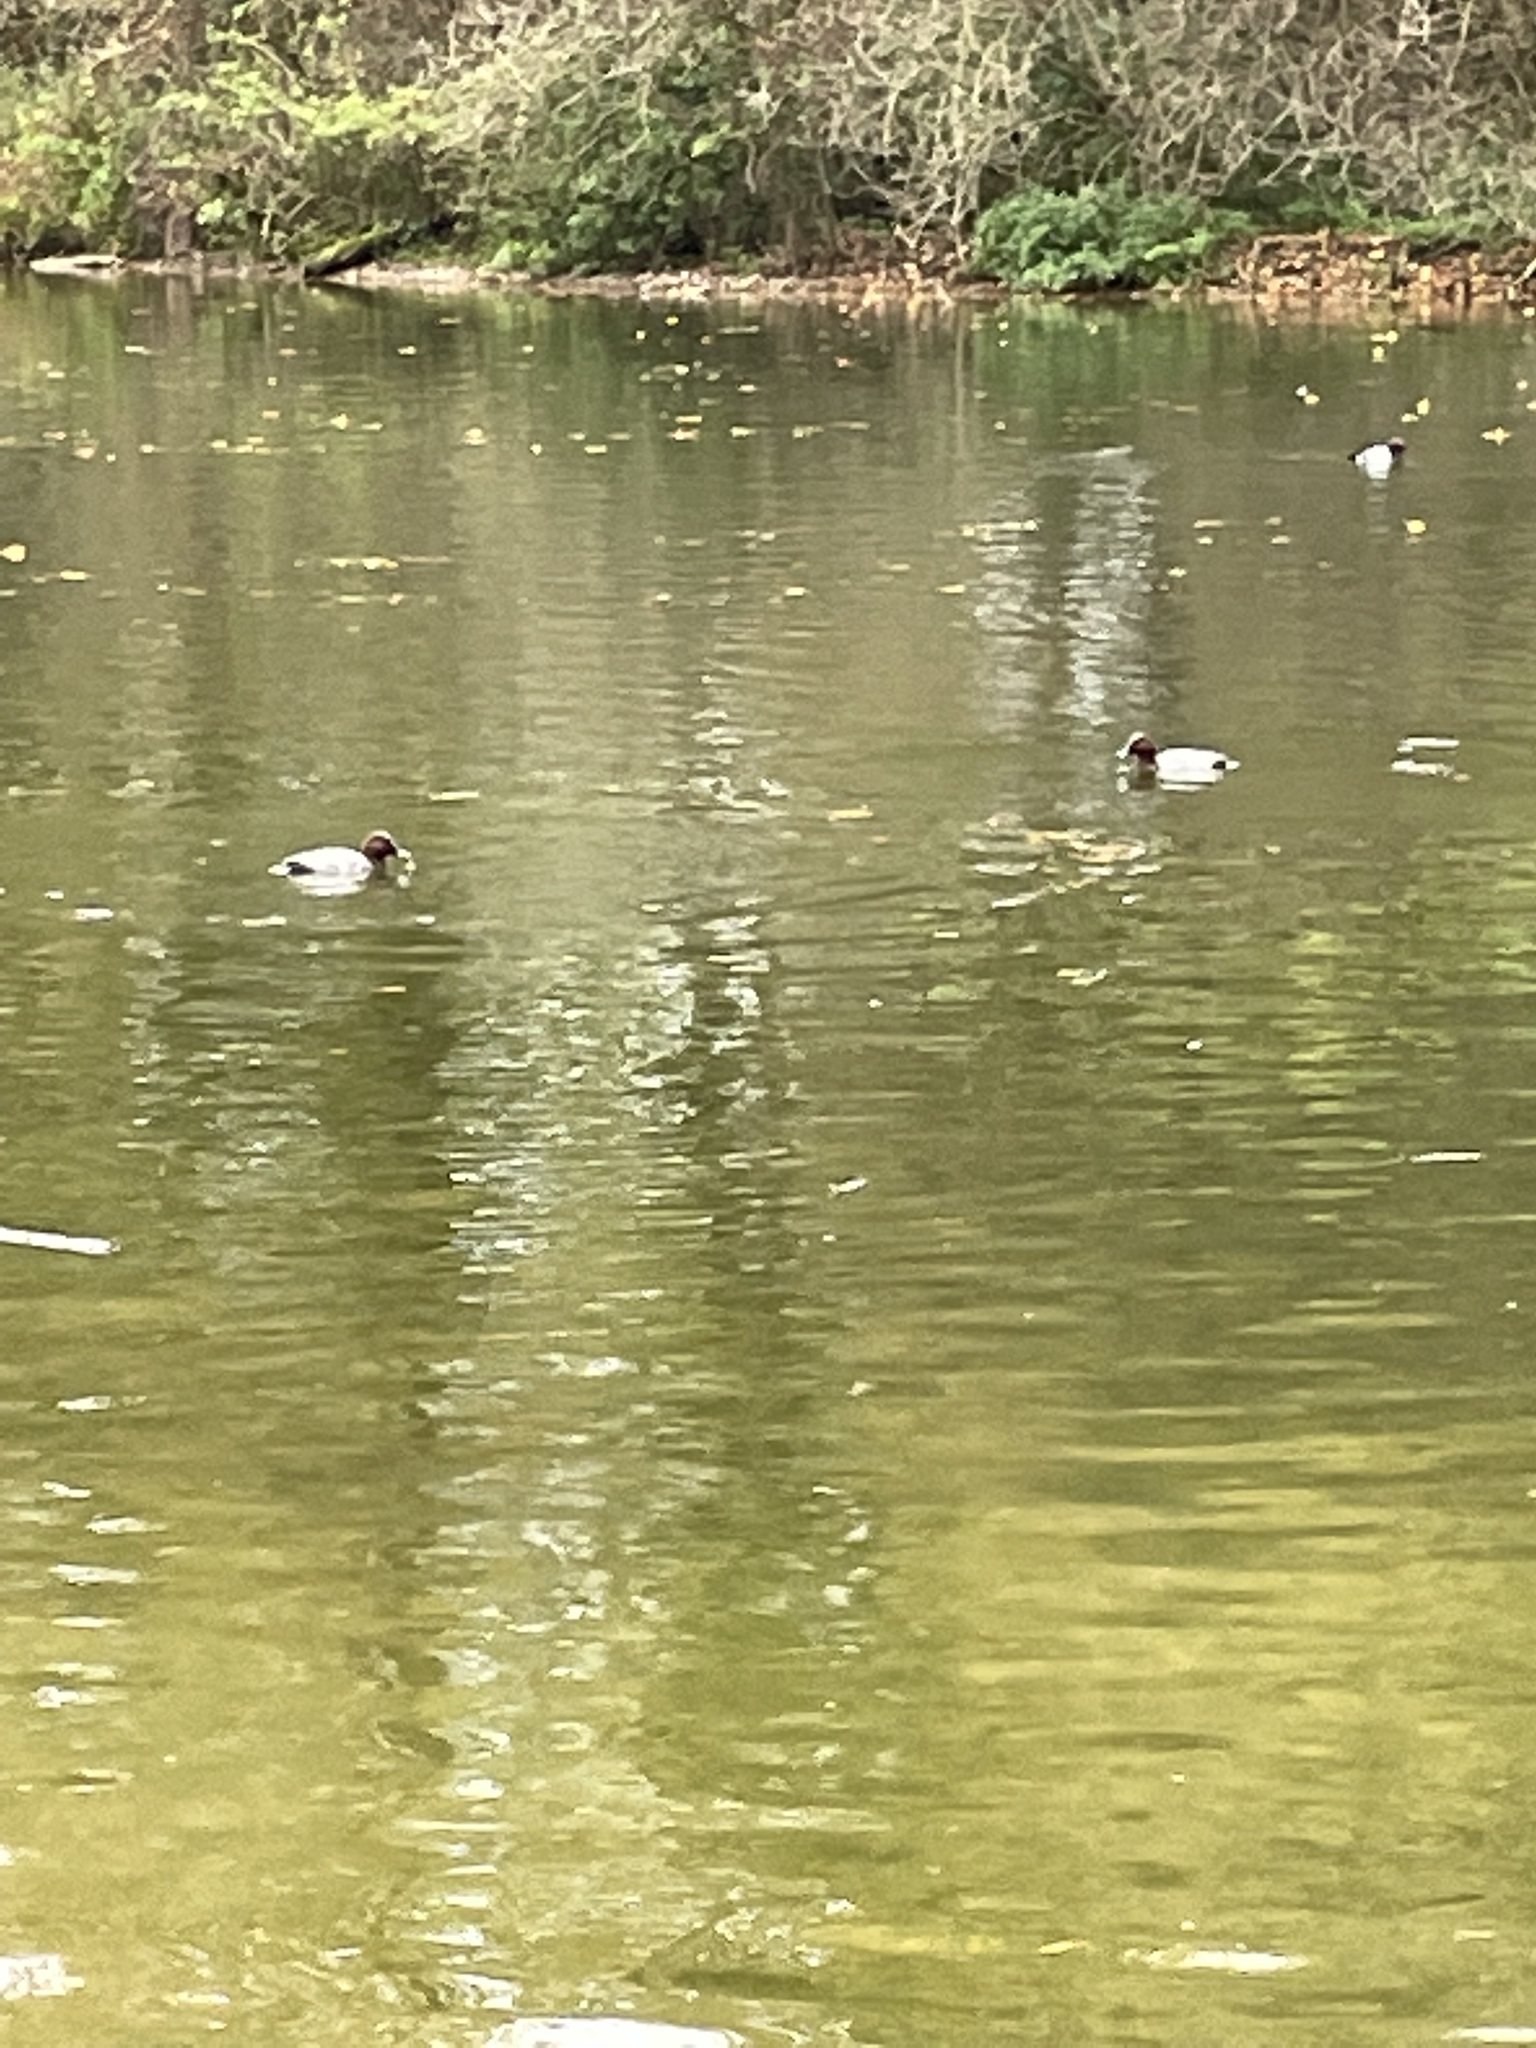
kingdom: Animalia
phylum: Chordata
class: Aves
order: Anseriformes
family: Anatidae
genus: Aythya
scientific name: Aythya ferina
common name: Common pochard
